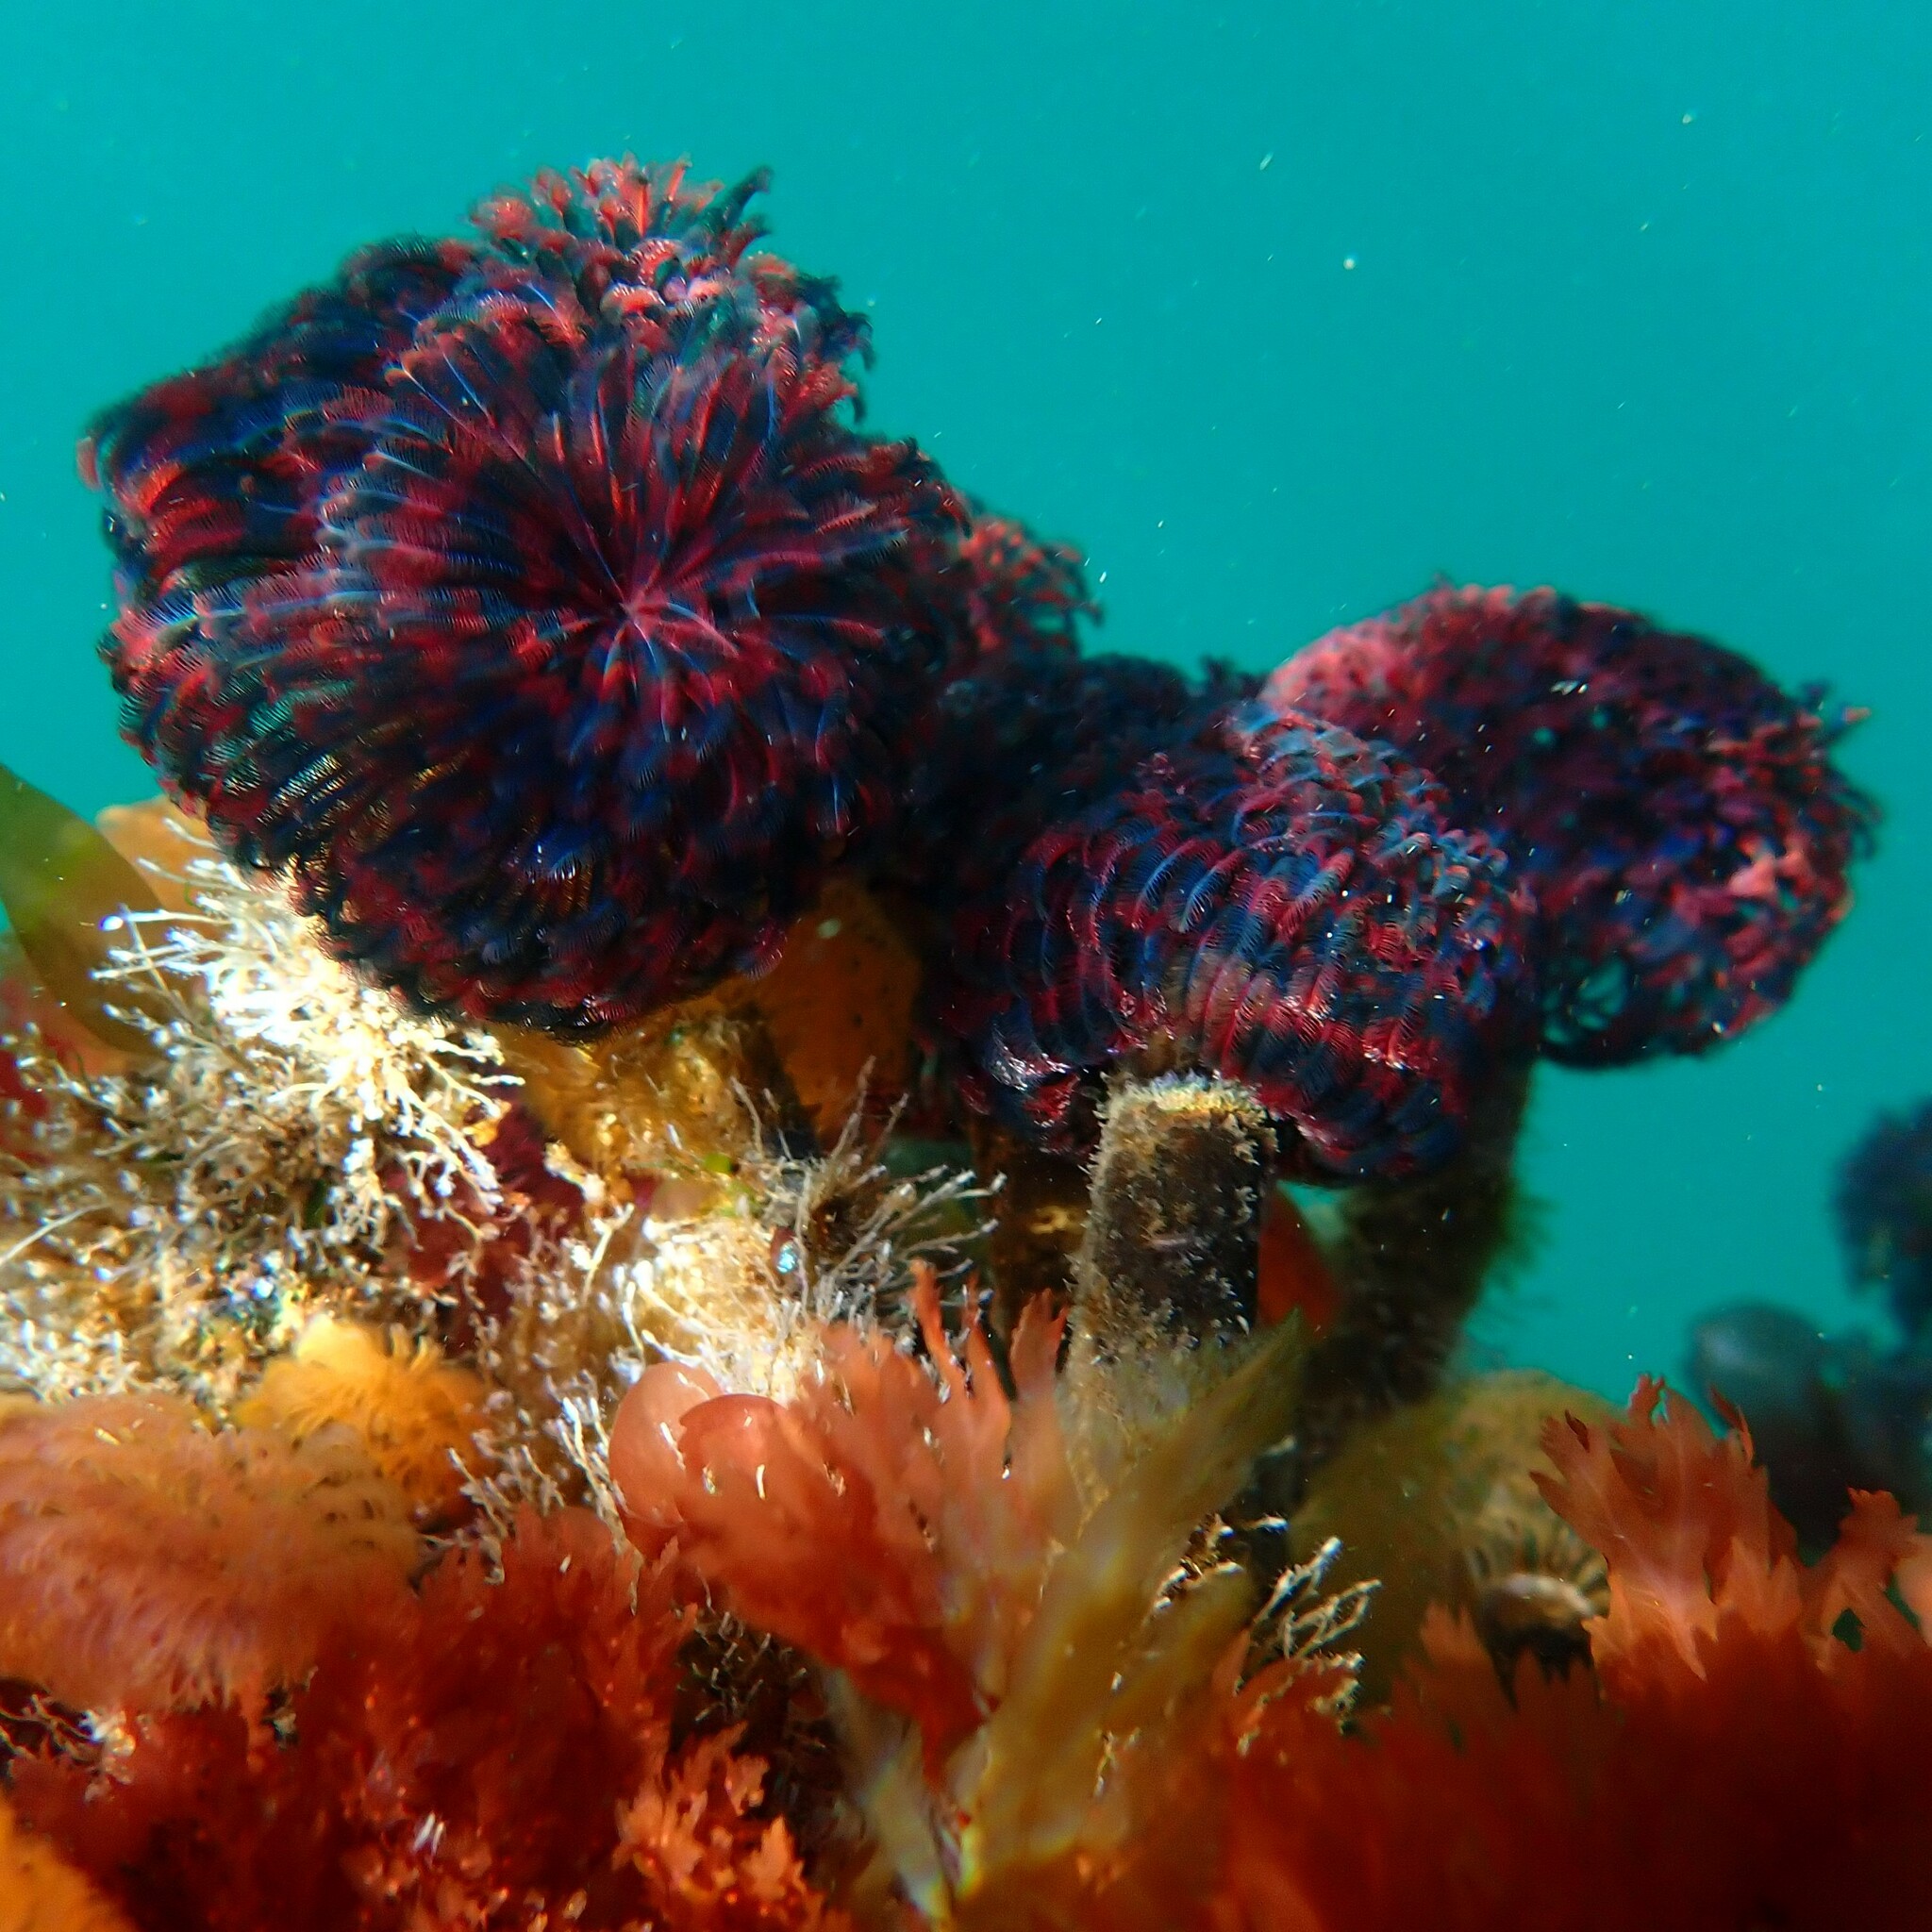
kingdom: Animalia
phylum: Annelida
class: Polychaeta
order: Sabellida
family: Sabellidae
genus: Eudistylia
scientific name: Eudistylia vancouveri
